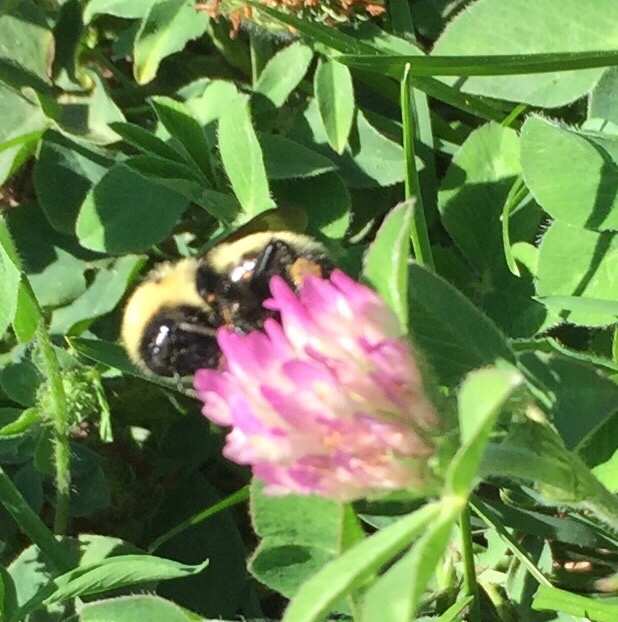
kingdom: Animalia
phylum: Arthropoda
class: Insecta
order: Hymenoptera
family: Apidae
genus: Bombus
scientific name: Bombus fervidus
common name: Yellow bumble bee
